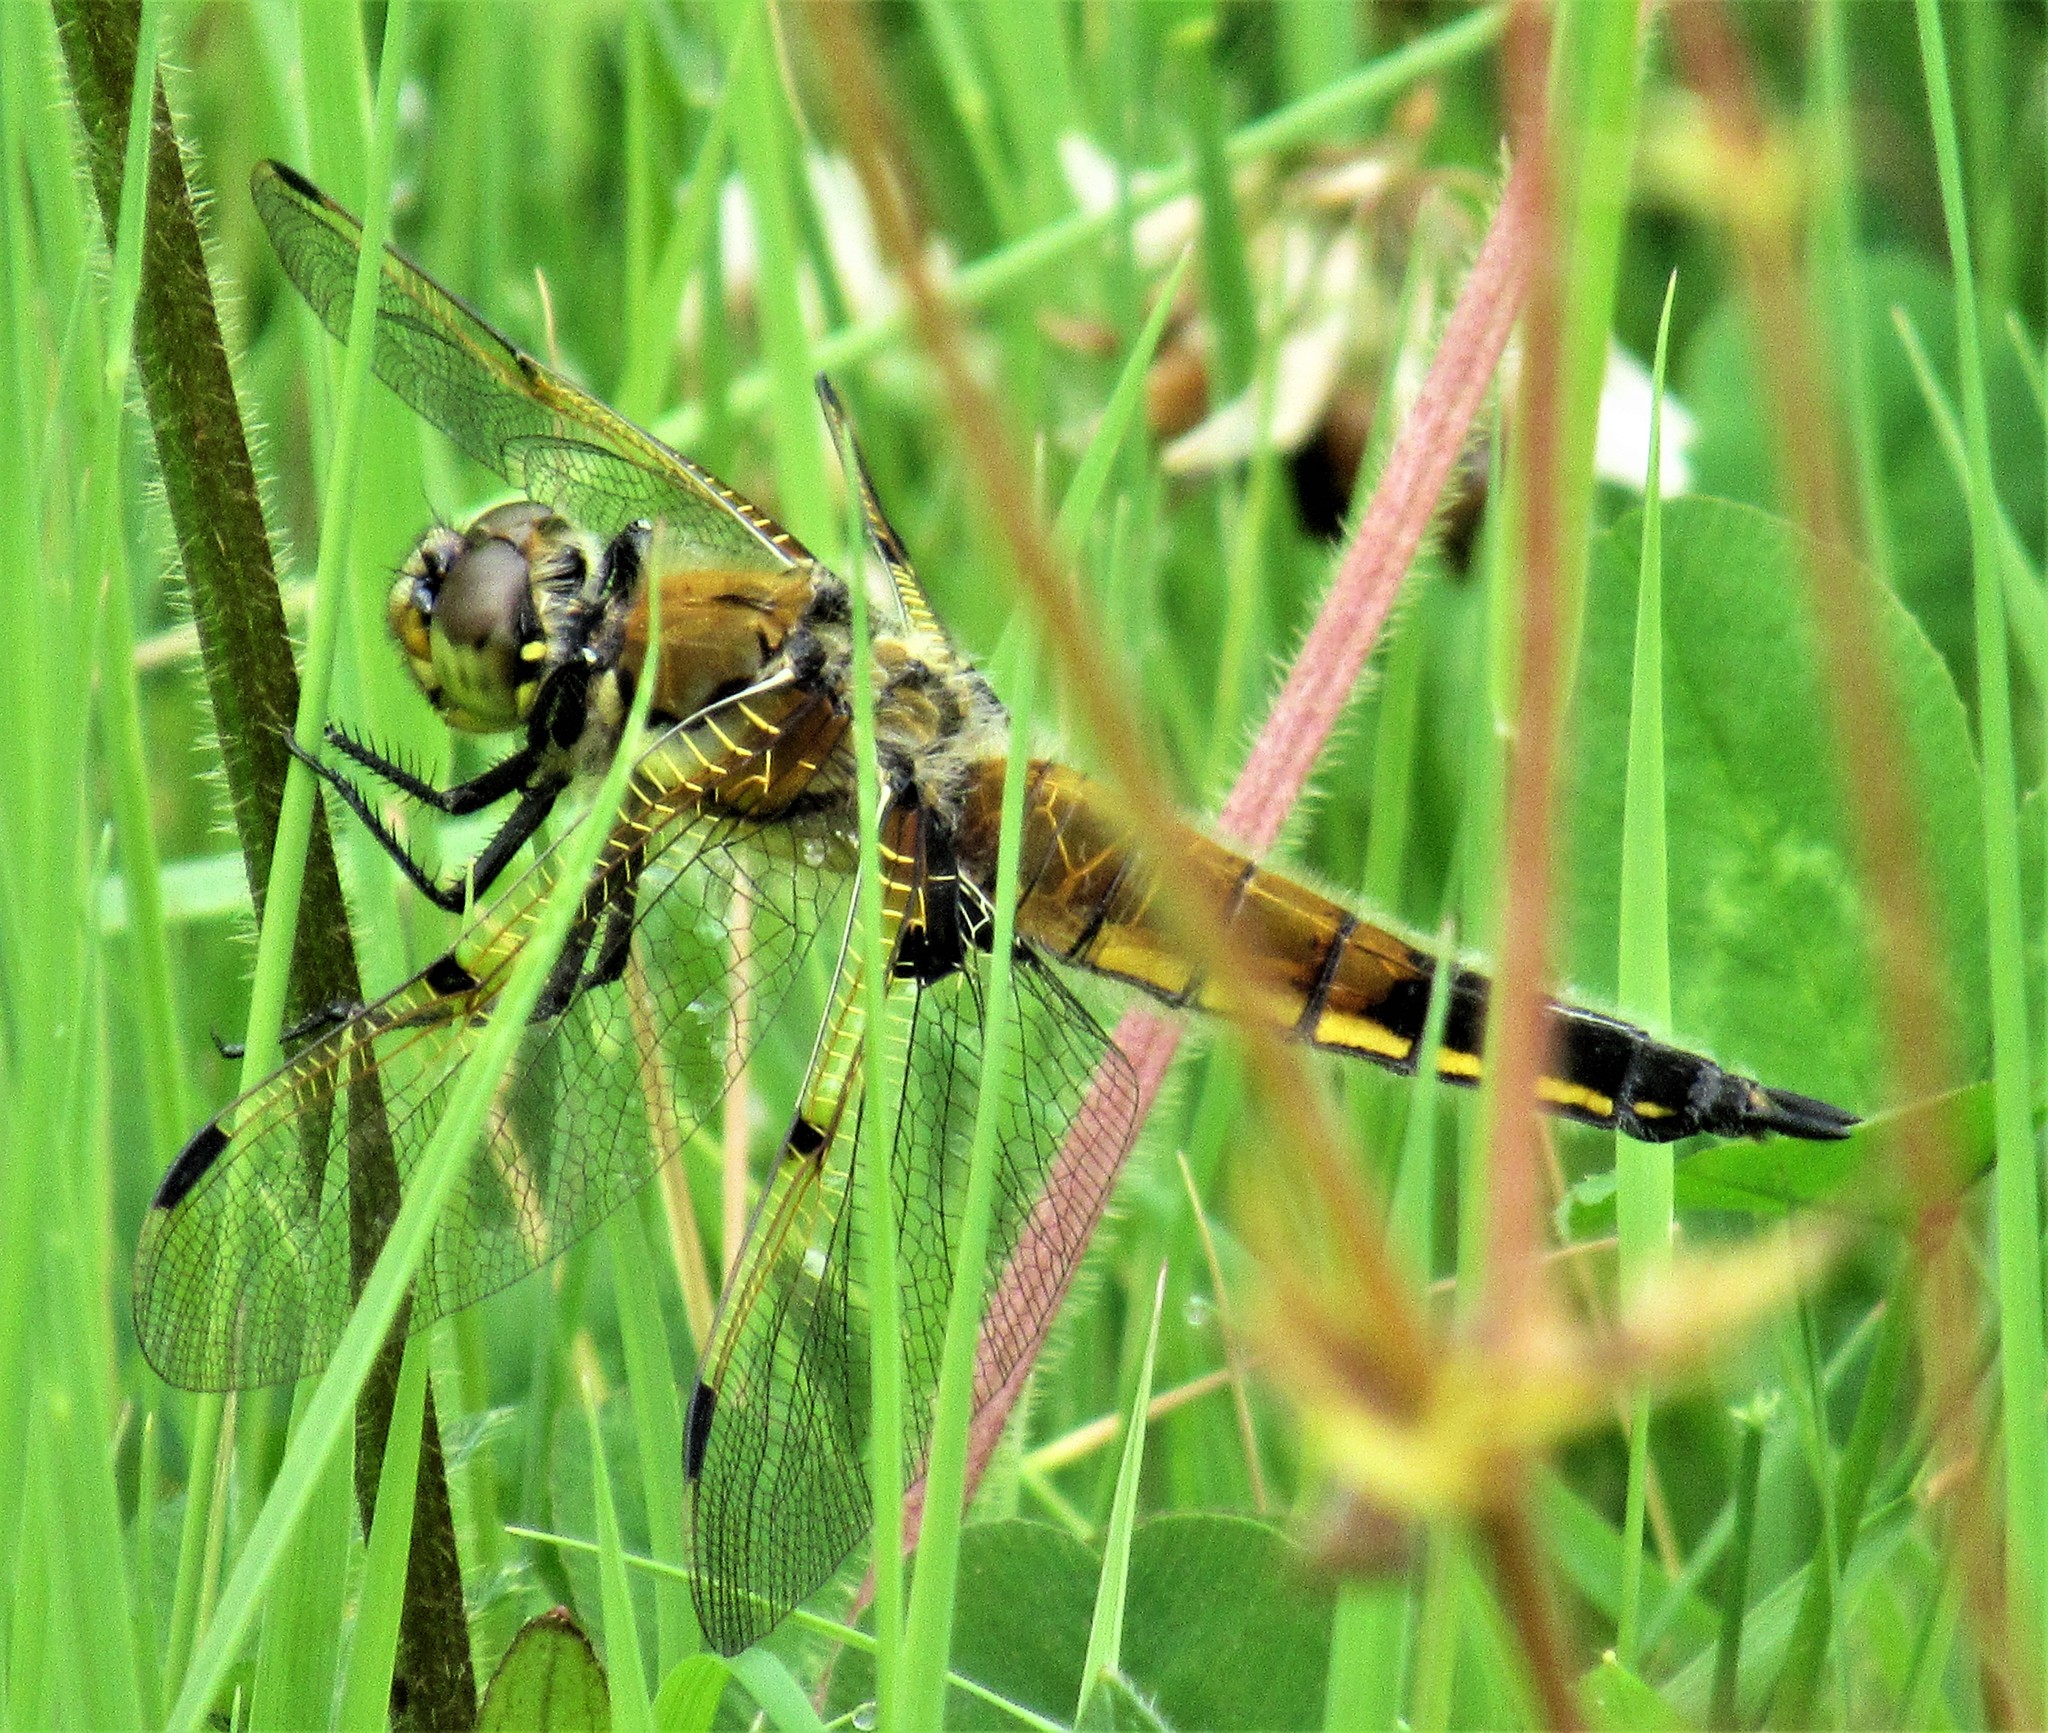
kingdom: Animalia
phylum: Arthropoda
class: Insecta
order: Odonata
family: Libellulidae
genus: Libellula
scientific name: Libellula quadrimaculata
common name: Four-spotted chaser
